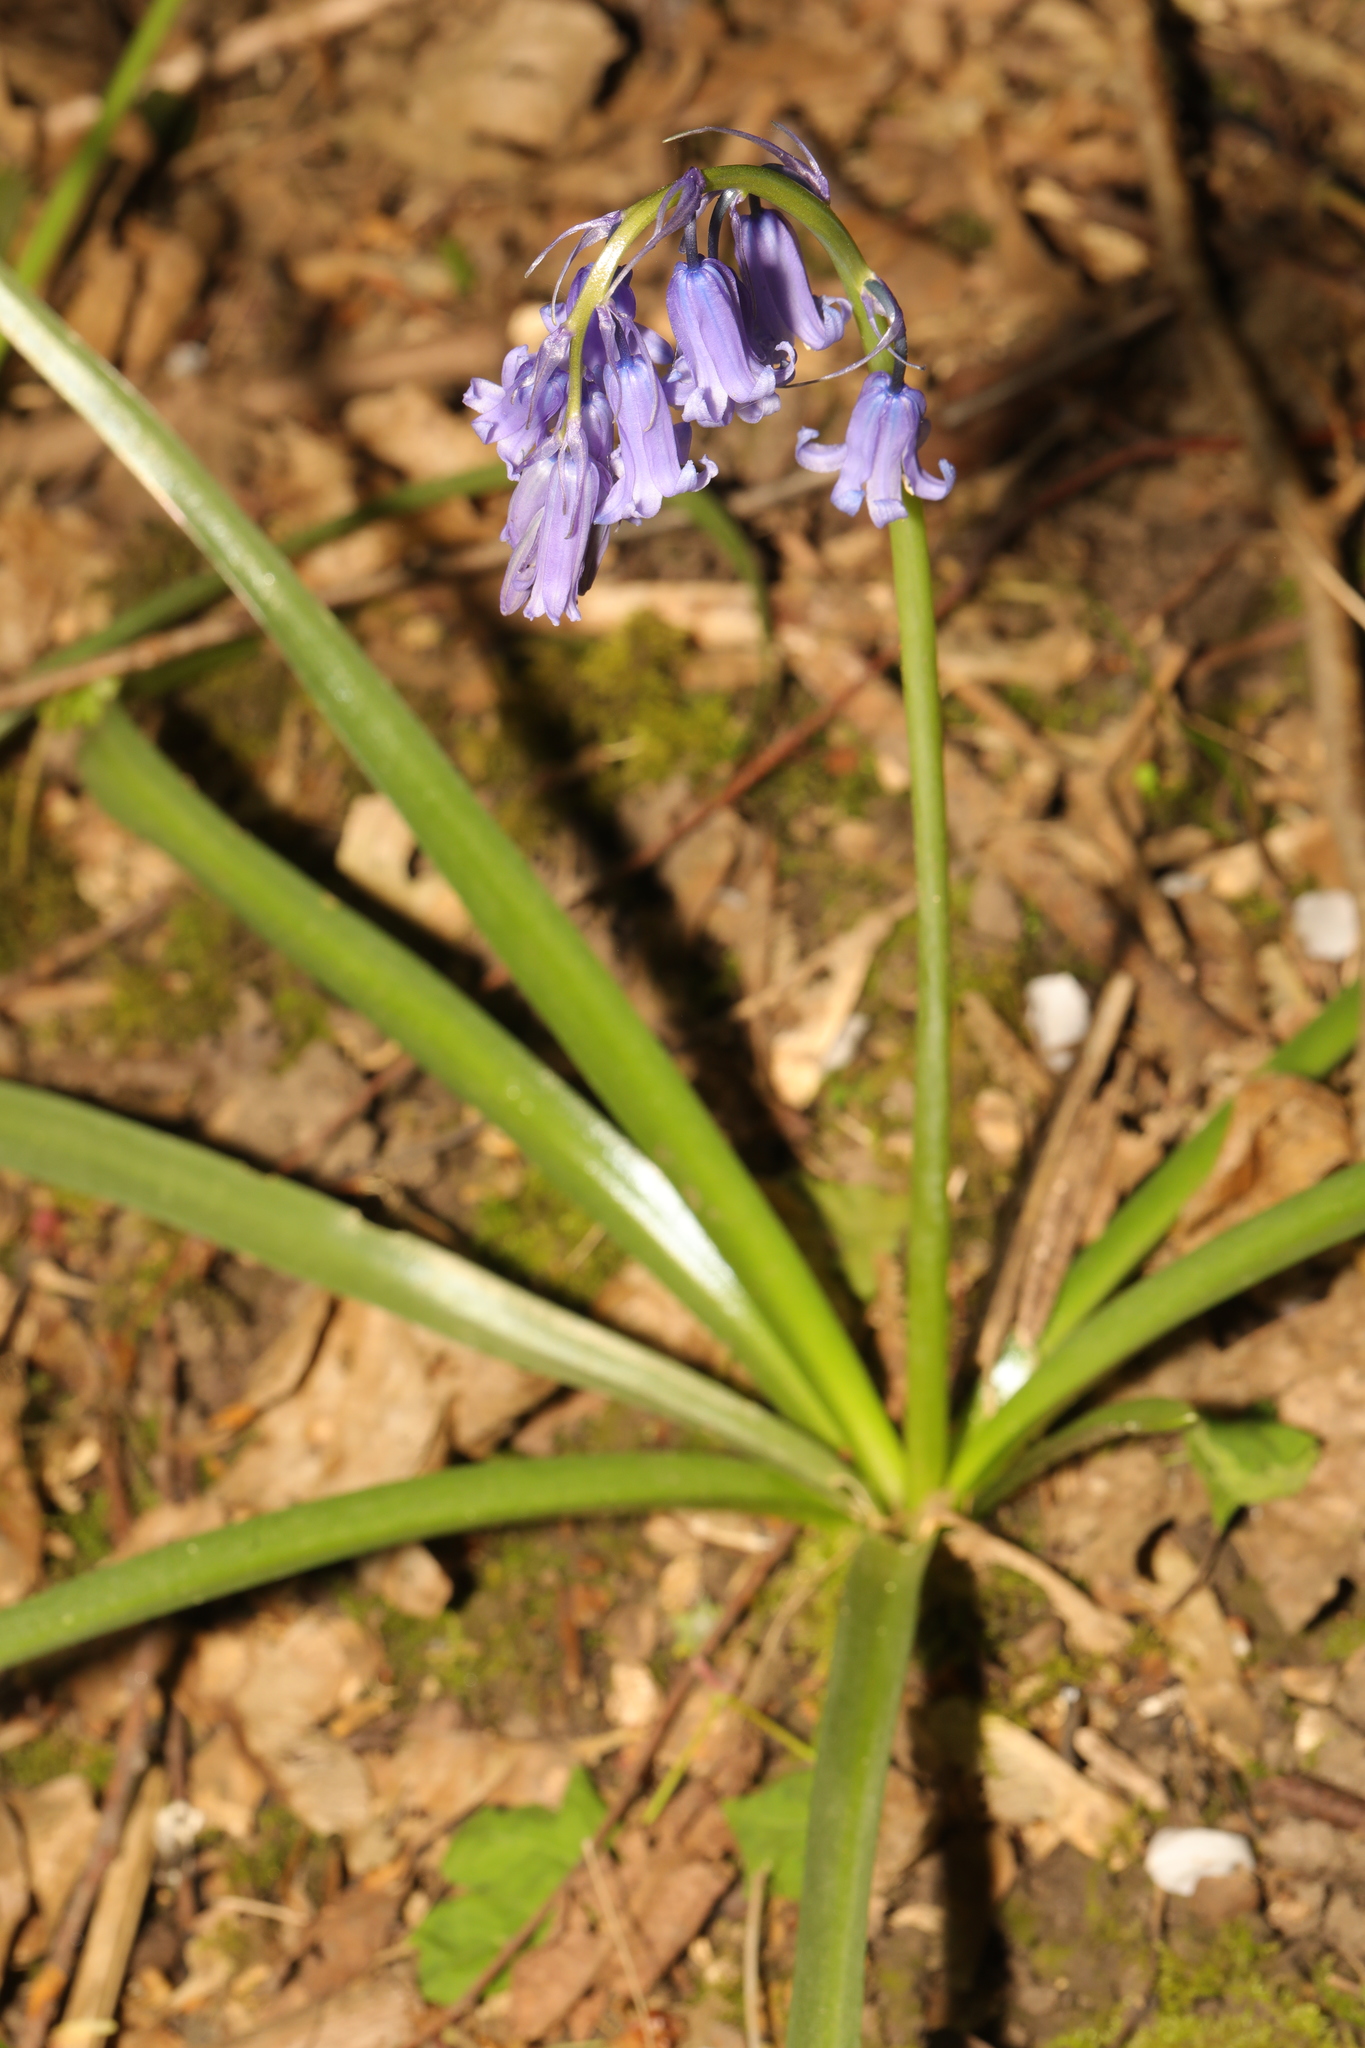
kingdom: Plantae
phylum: Tracheophyta
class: Liliopsida
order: Asparagales
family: Asparagaceae
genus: Hyacinthoides
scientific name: Hyacinthoides non-scripta
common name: Bluebell
